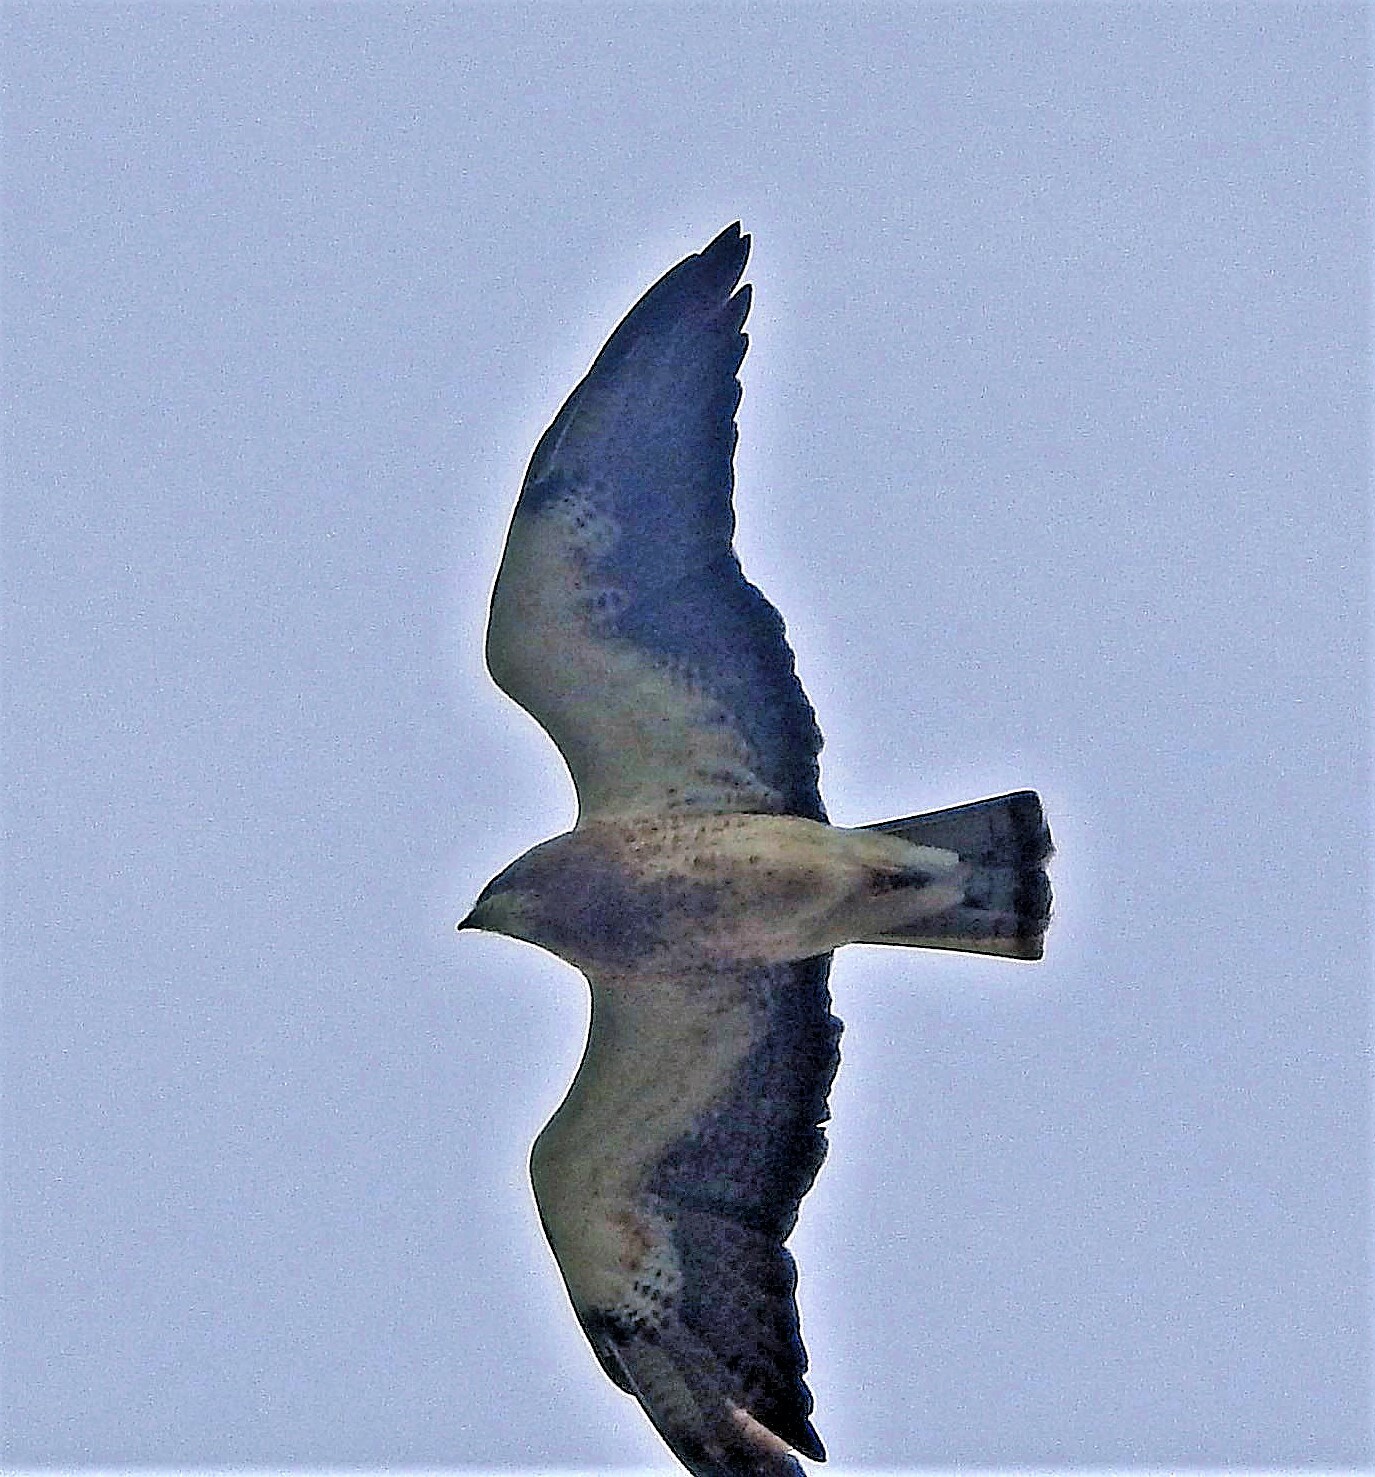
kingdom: Animalia
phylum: Chordata
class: Aves
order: Accipitriformes
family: Accipitridae
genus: Buteo
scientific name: Buteo swainsoni
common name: Swainson's hawk
